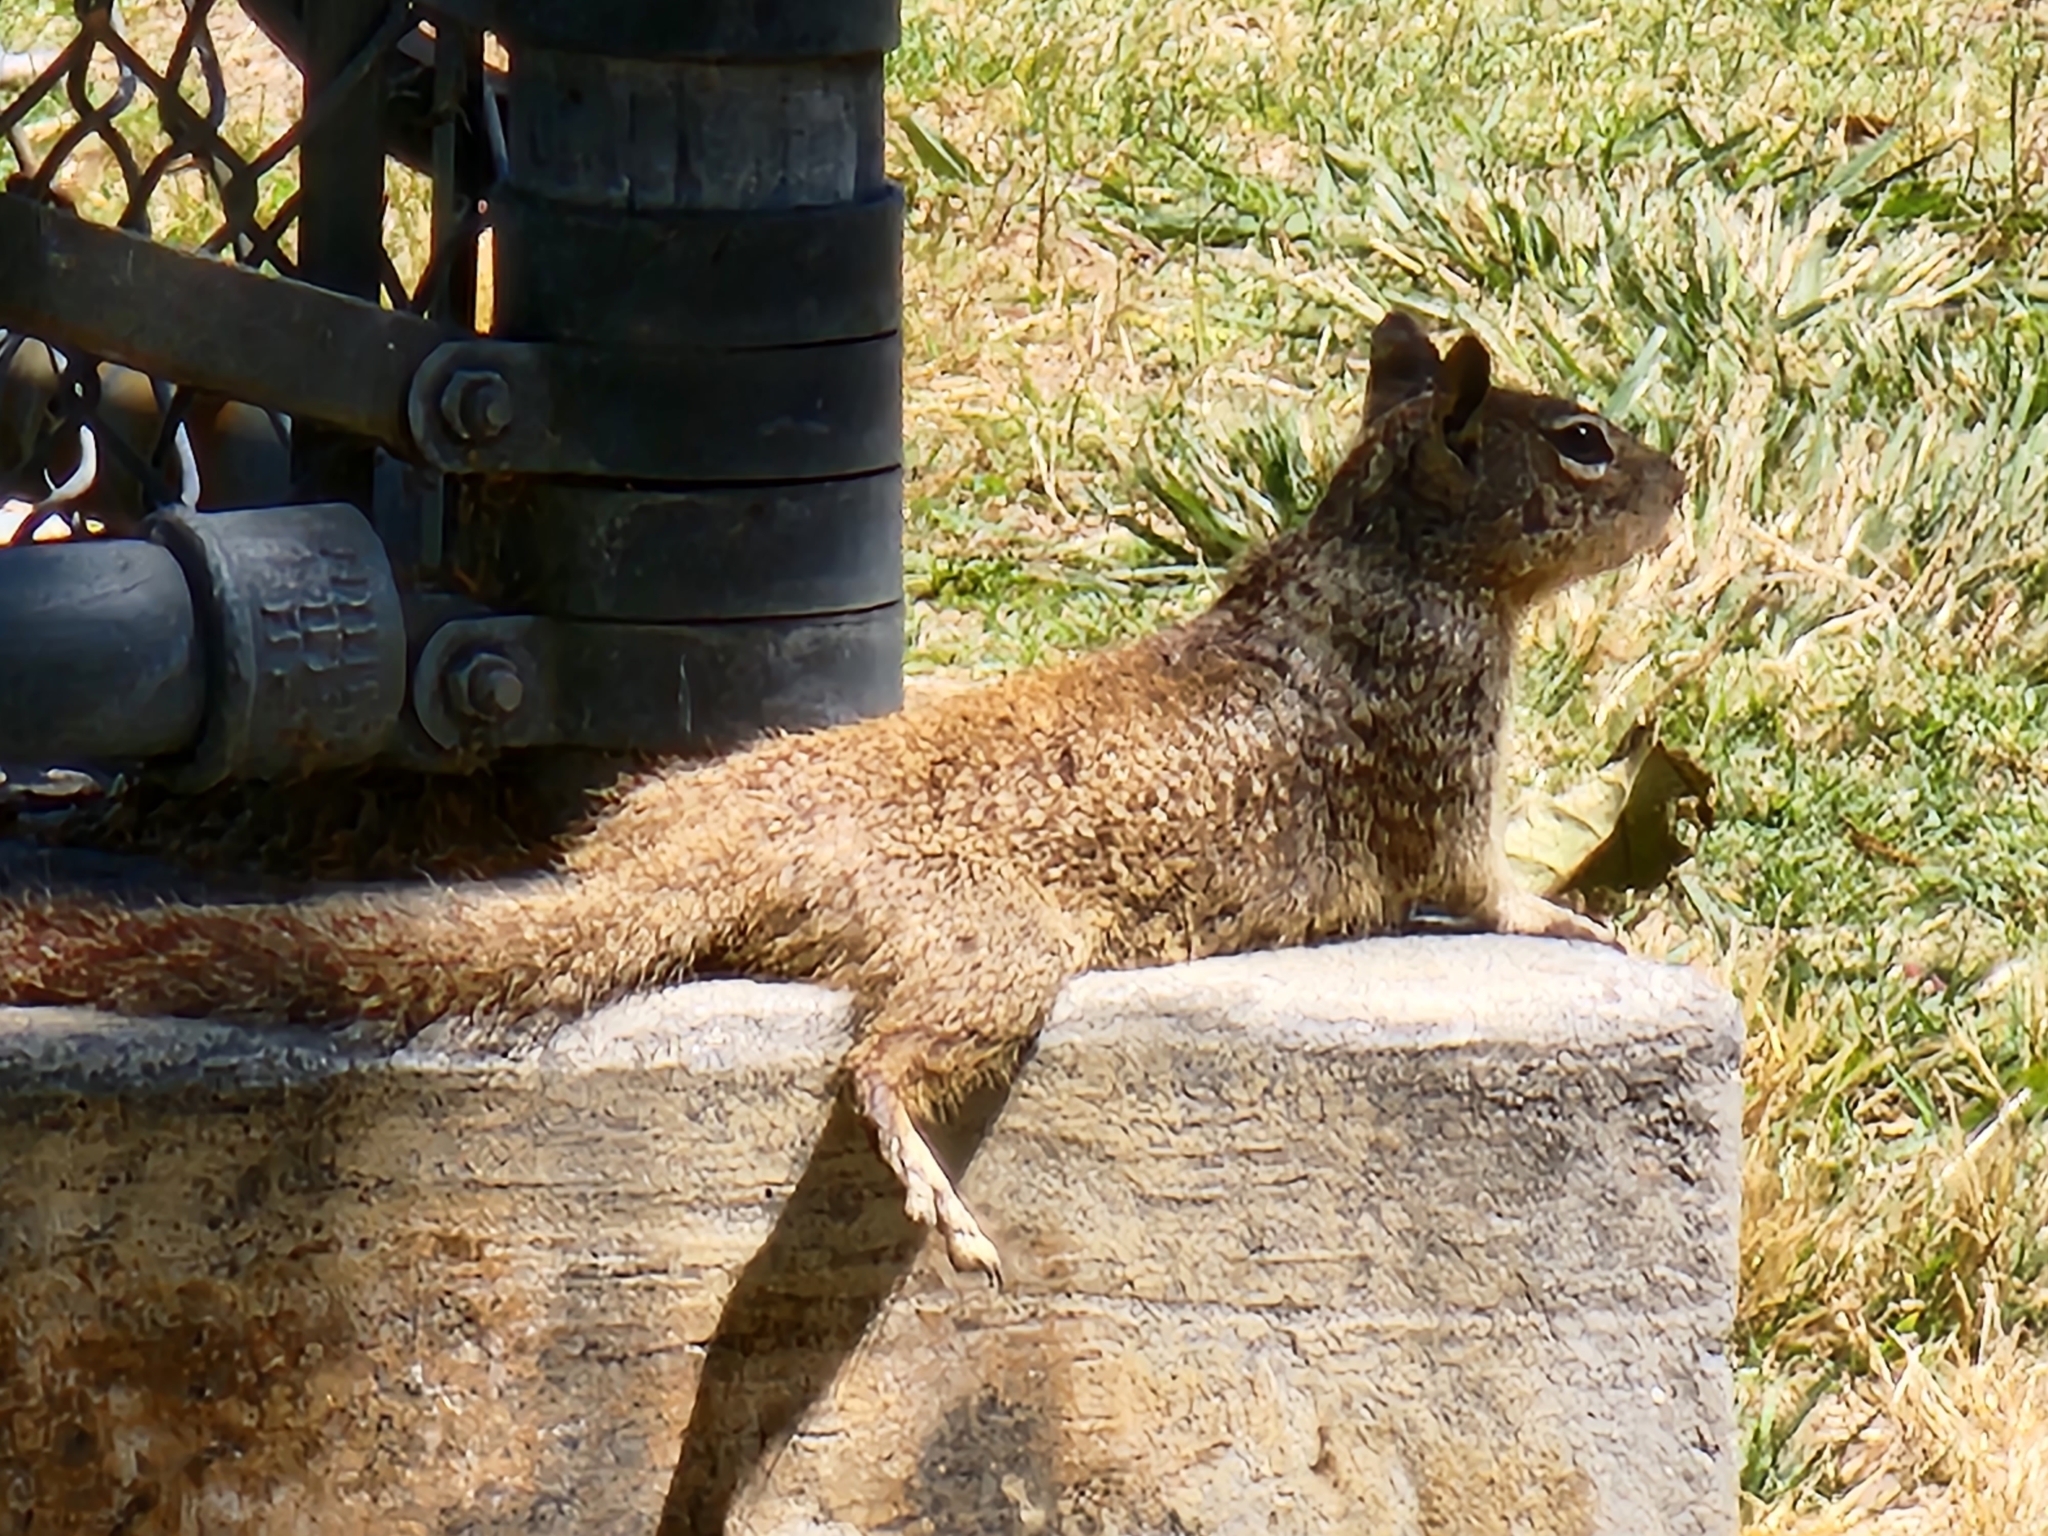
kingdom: Animalia
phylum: Chordata
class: Mammalia
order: Rodentia
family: Sciuridae
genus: Otospermophilus
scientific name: Otospermophilus beecheyi
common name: California ground squirrel
